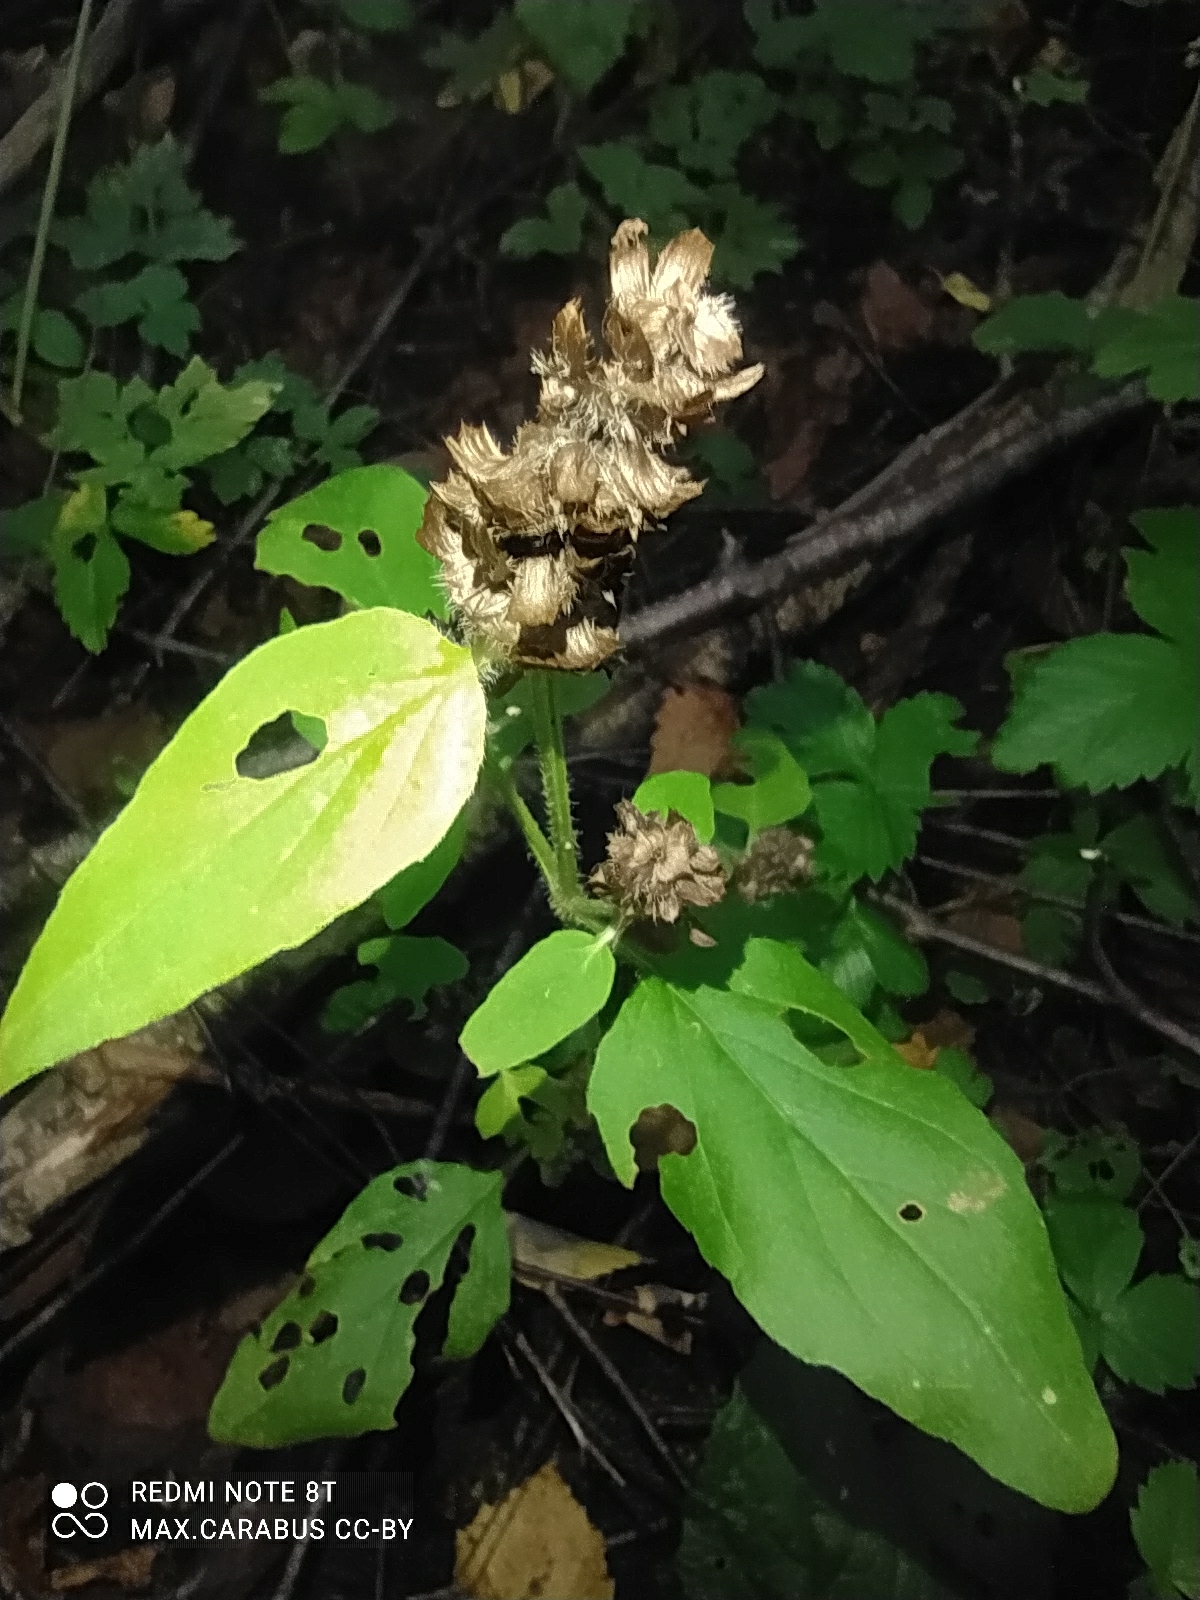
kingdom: Plantae
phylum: Tracheophyta
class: Magnoliopsida
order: Lamiales
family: Lamiaceae
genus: Prunella
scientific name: Prunella vulgaris
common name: Heal-all
